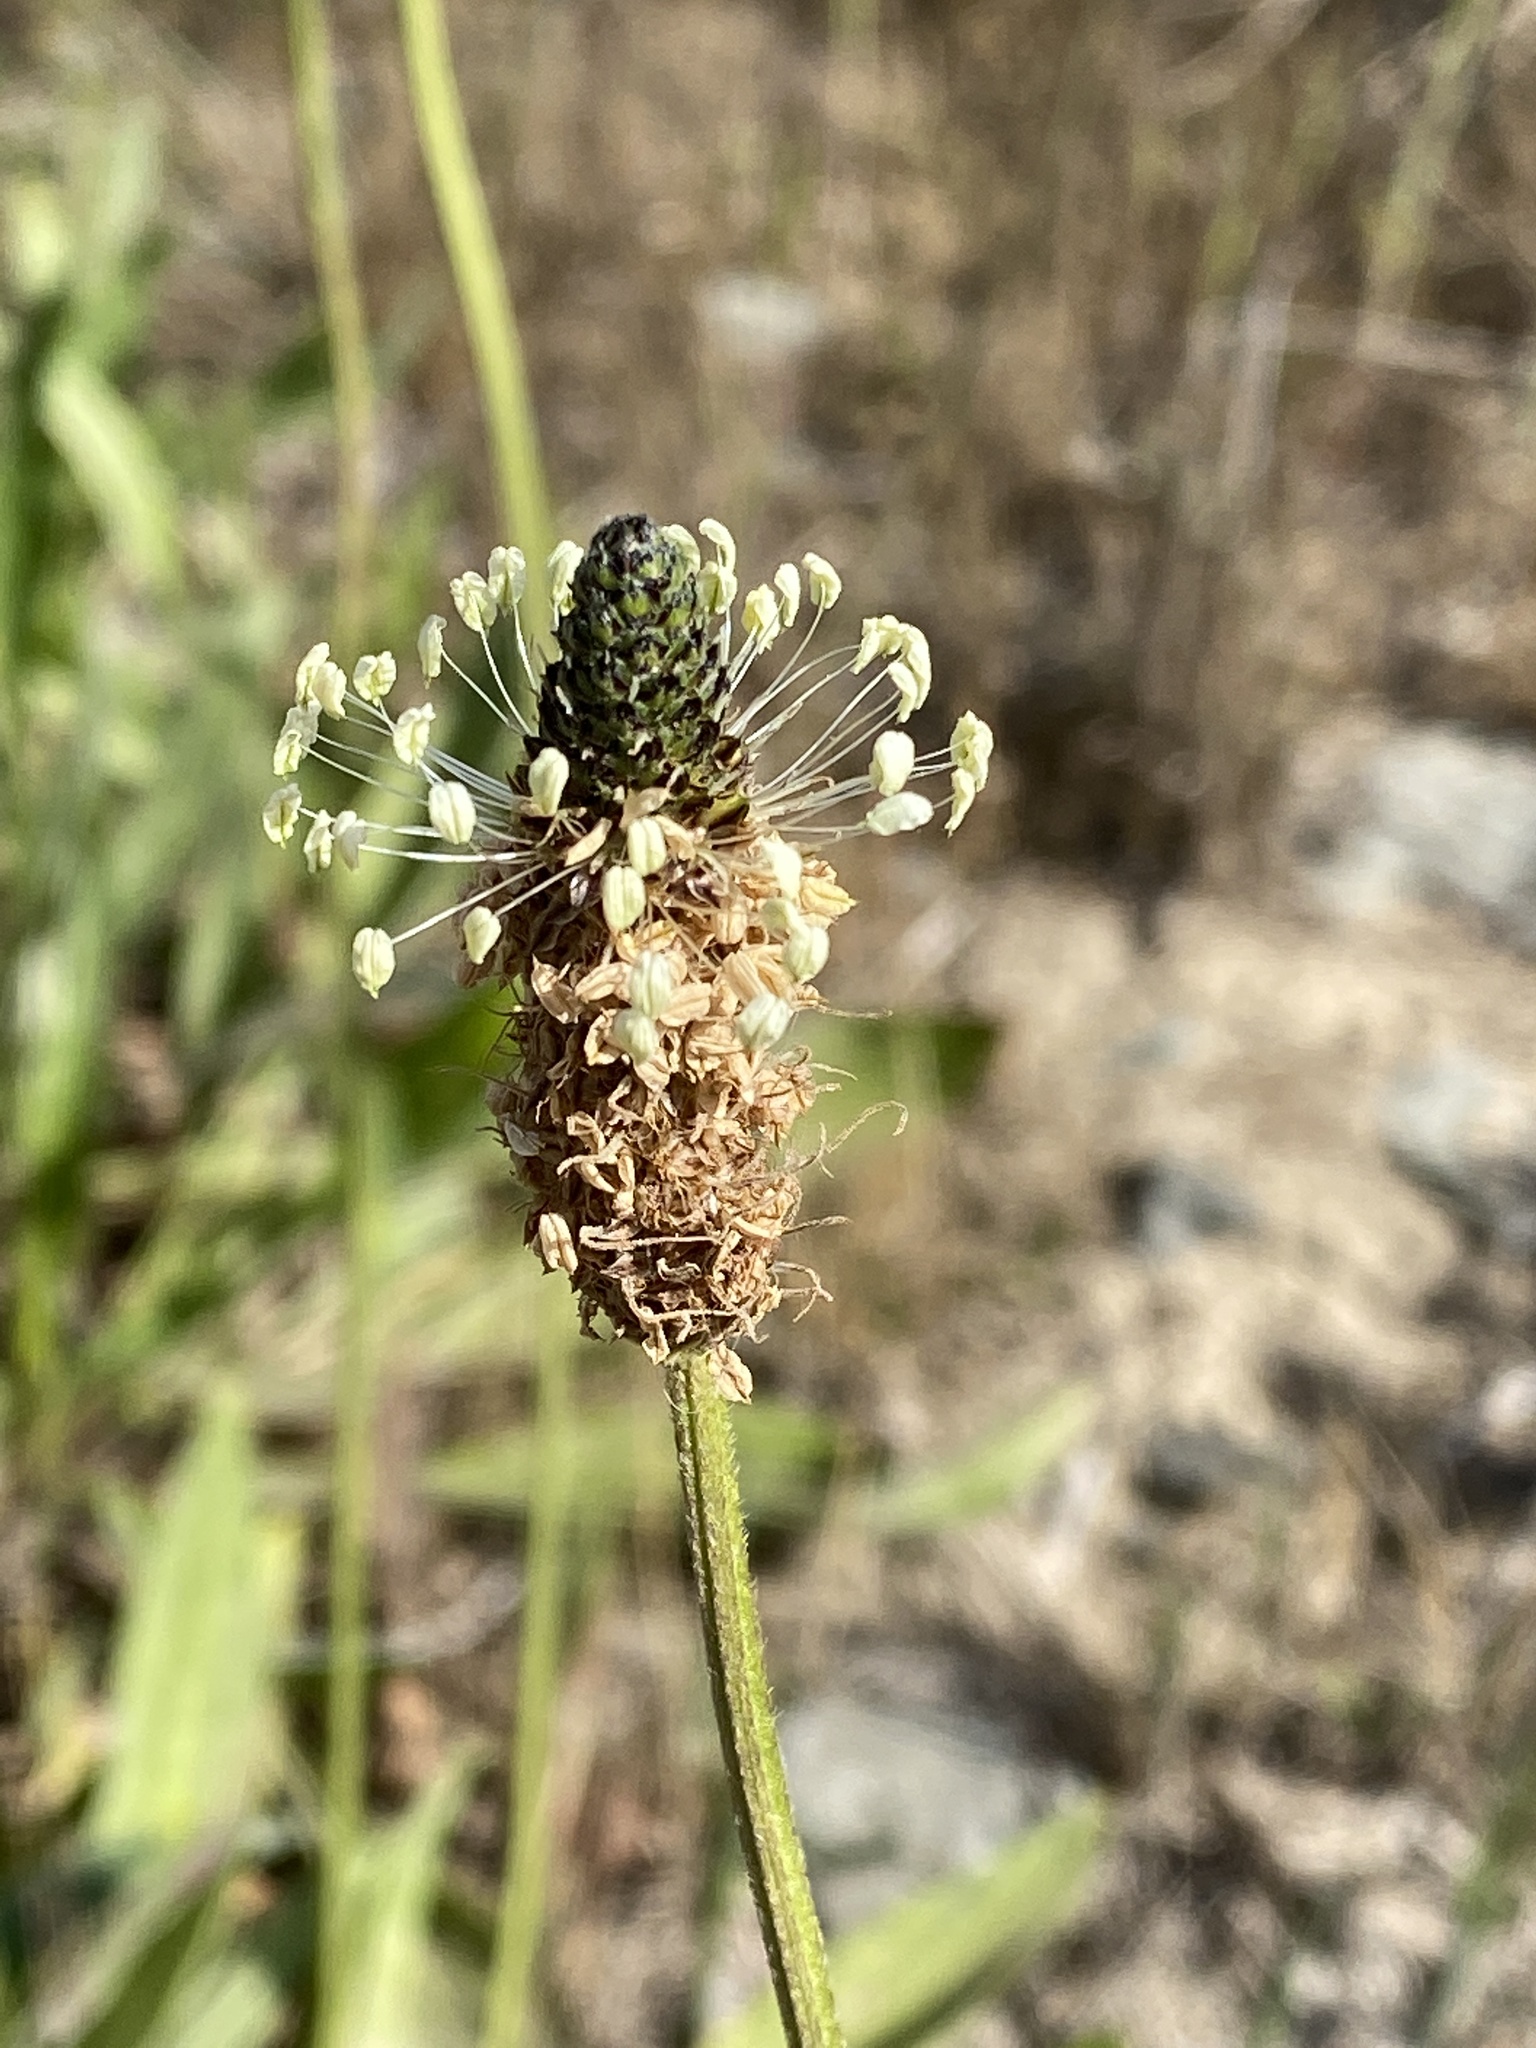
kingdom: Plantae
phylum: Tracheophyta
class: Magnoliopsida
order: Lamiales
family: Plantaginaceae
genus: Plantago
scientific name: Plantago lanceolata
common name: Ribwort plantain
